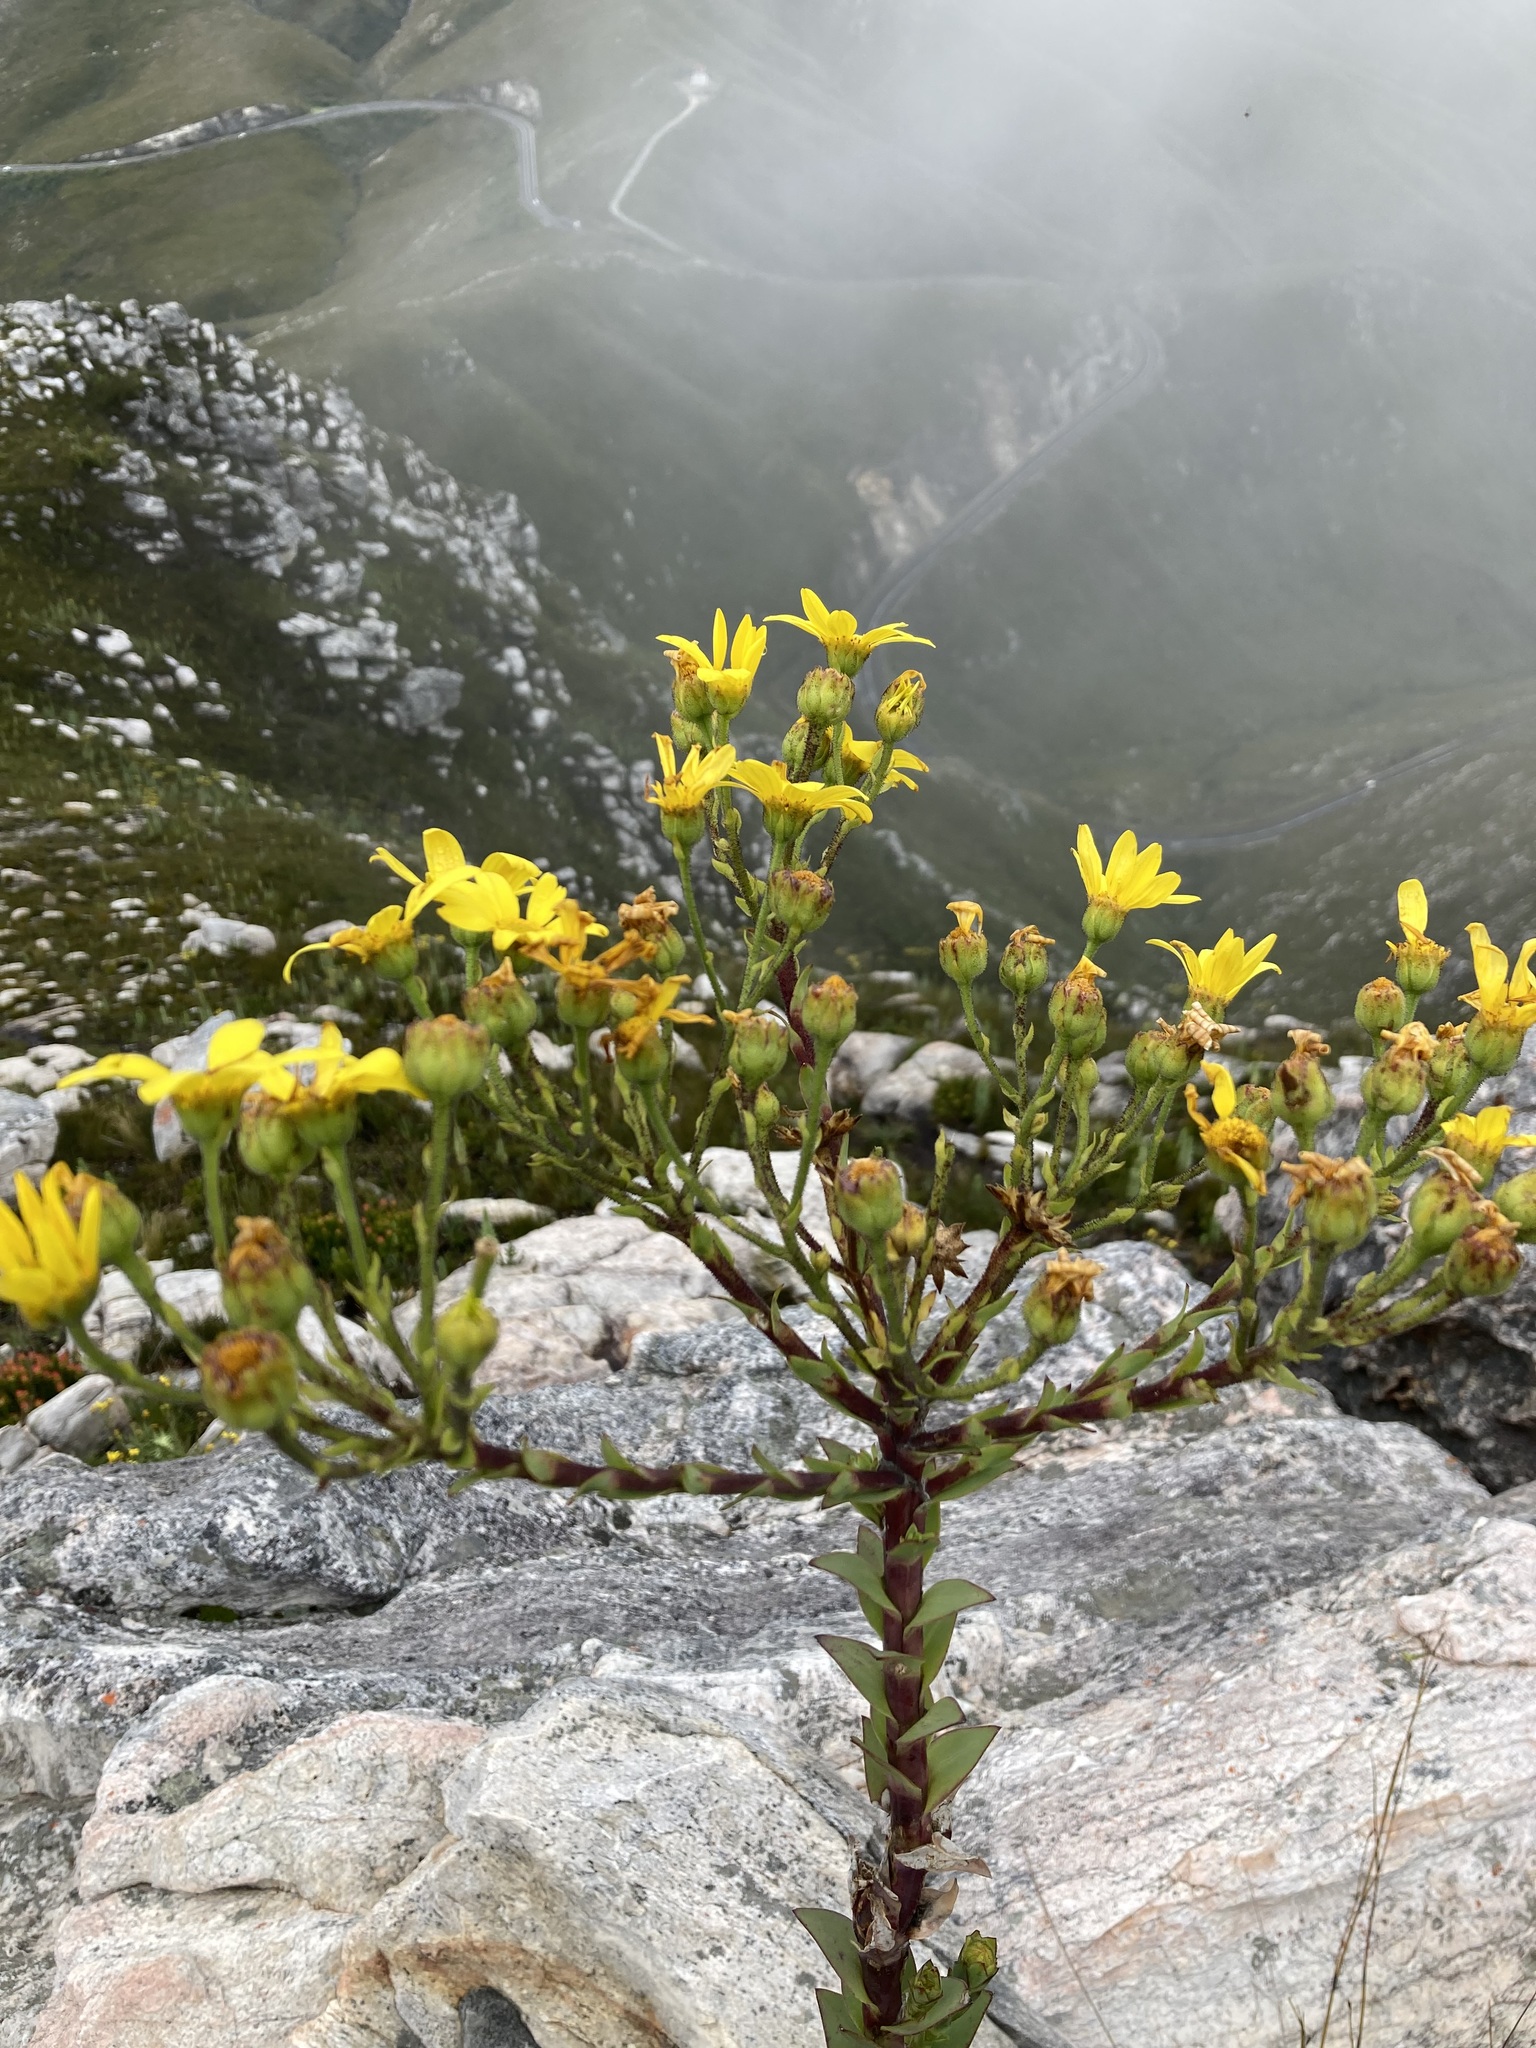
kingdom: Plantae
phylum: Tracheophyta
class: Magnoliopsida
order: Asterales
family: Asteraceae
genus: Osteospermum
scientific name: Osteospermum corymbosum
